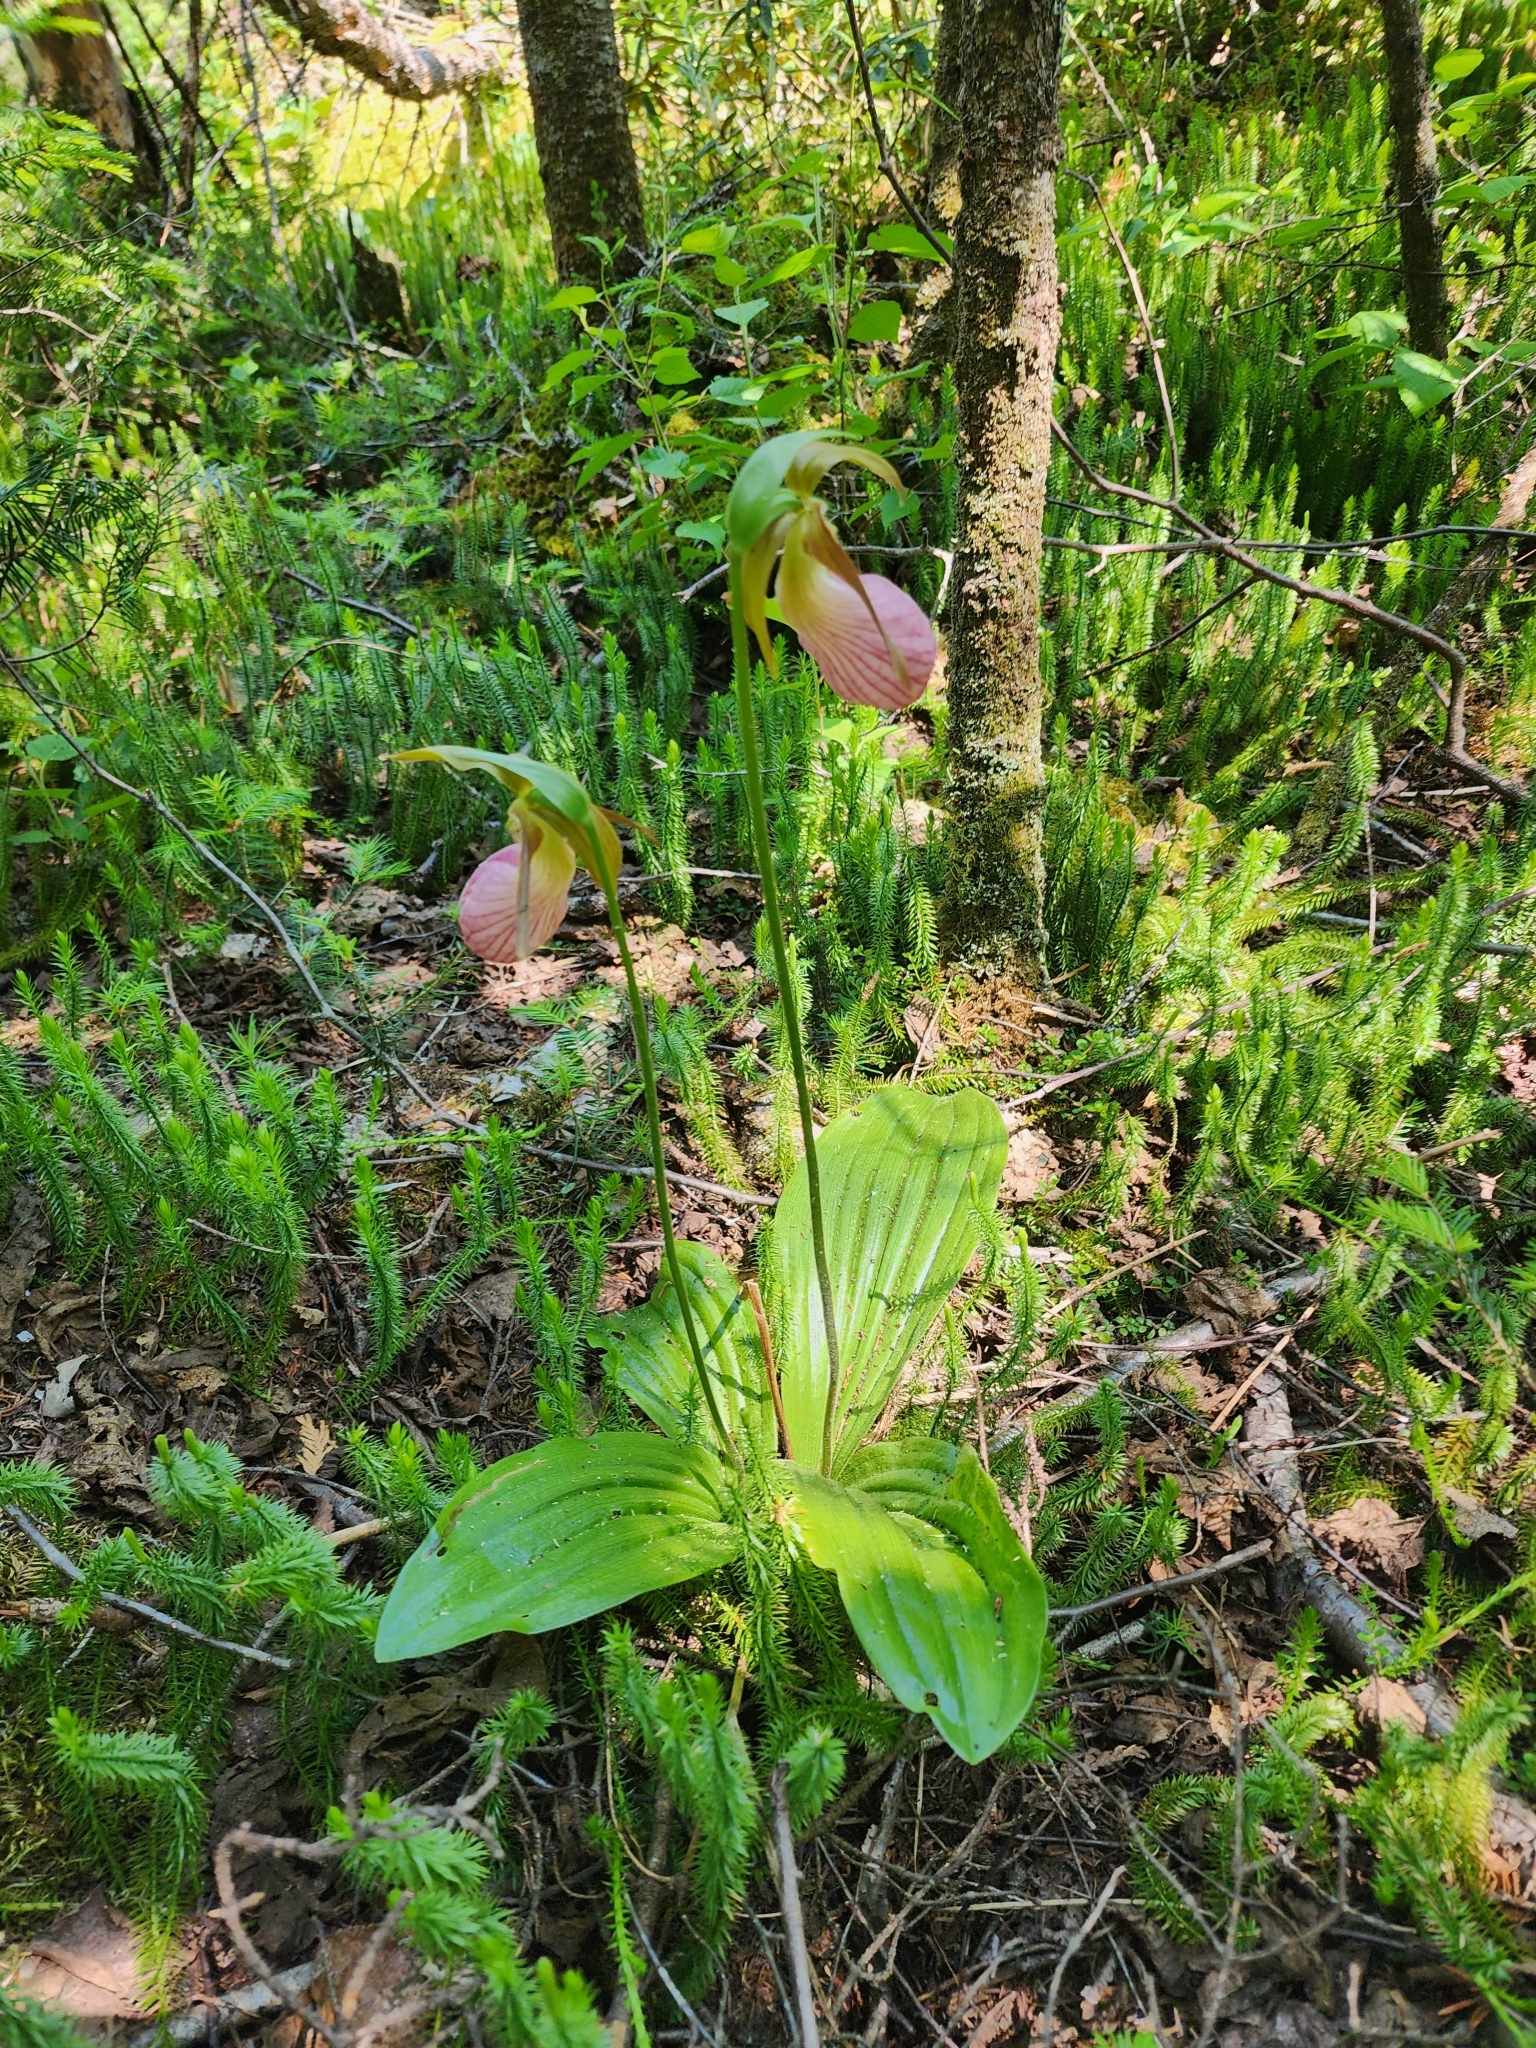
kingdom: Plantae
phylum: Tracheophyta
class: Liliopsida
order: Asparagales
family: Orchidaceae
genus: Cypripedium
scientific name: Cypripedium acaule
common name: Pink lady's-slipper
